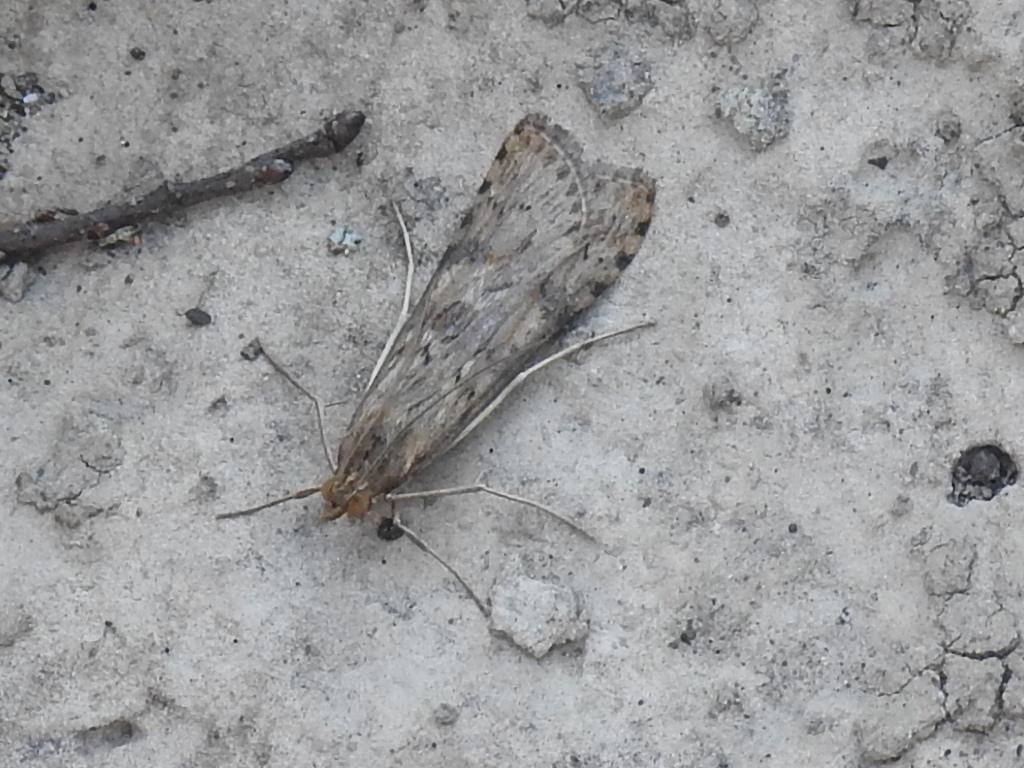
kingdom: Animalia
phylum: Arthropoda
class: Insecta
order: Lepidoptera
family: Crambidae
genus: Nomophila
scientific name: Nomophila nearctica
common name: American rush veneer
